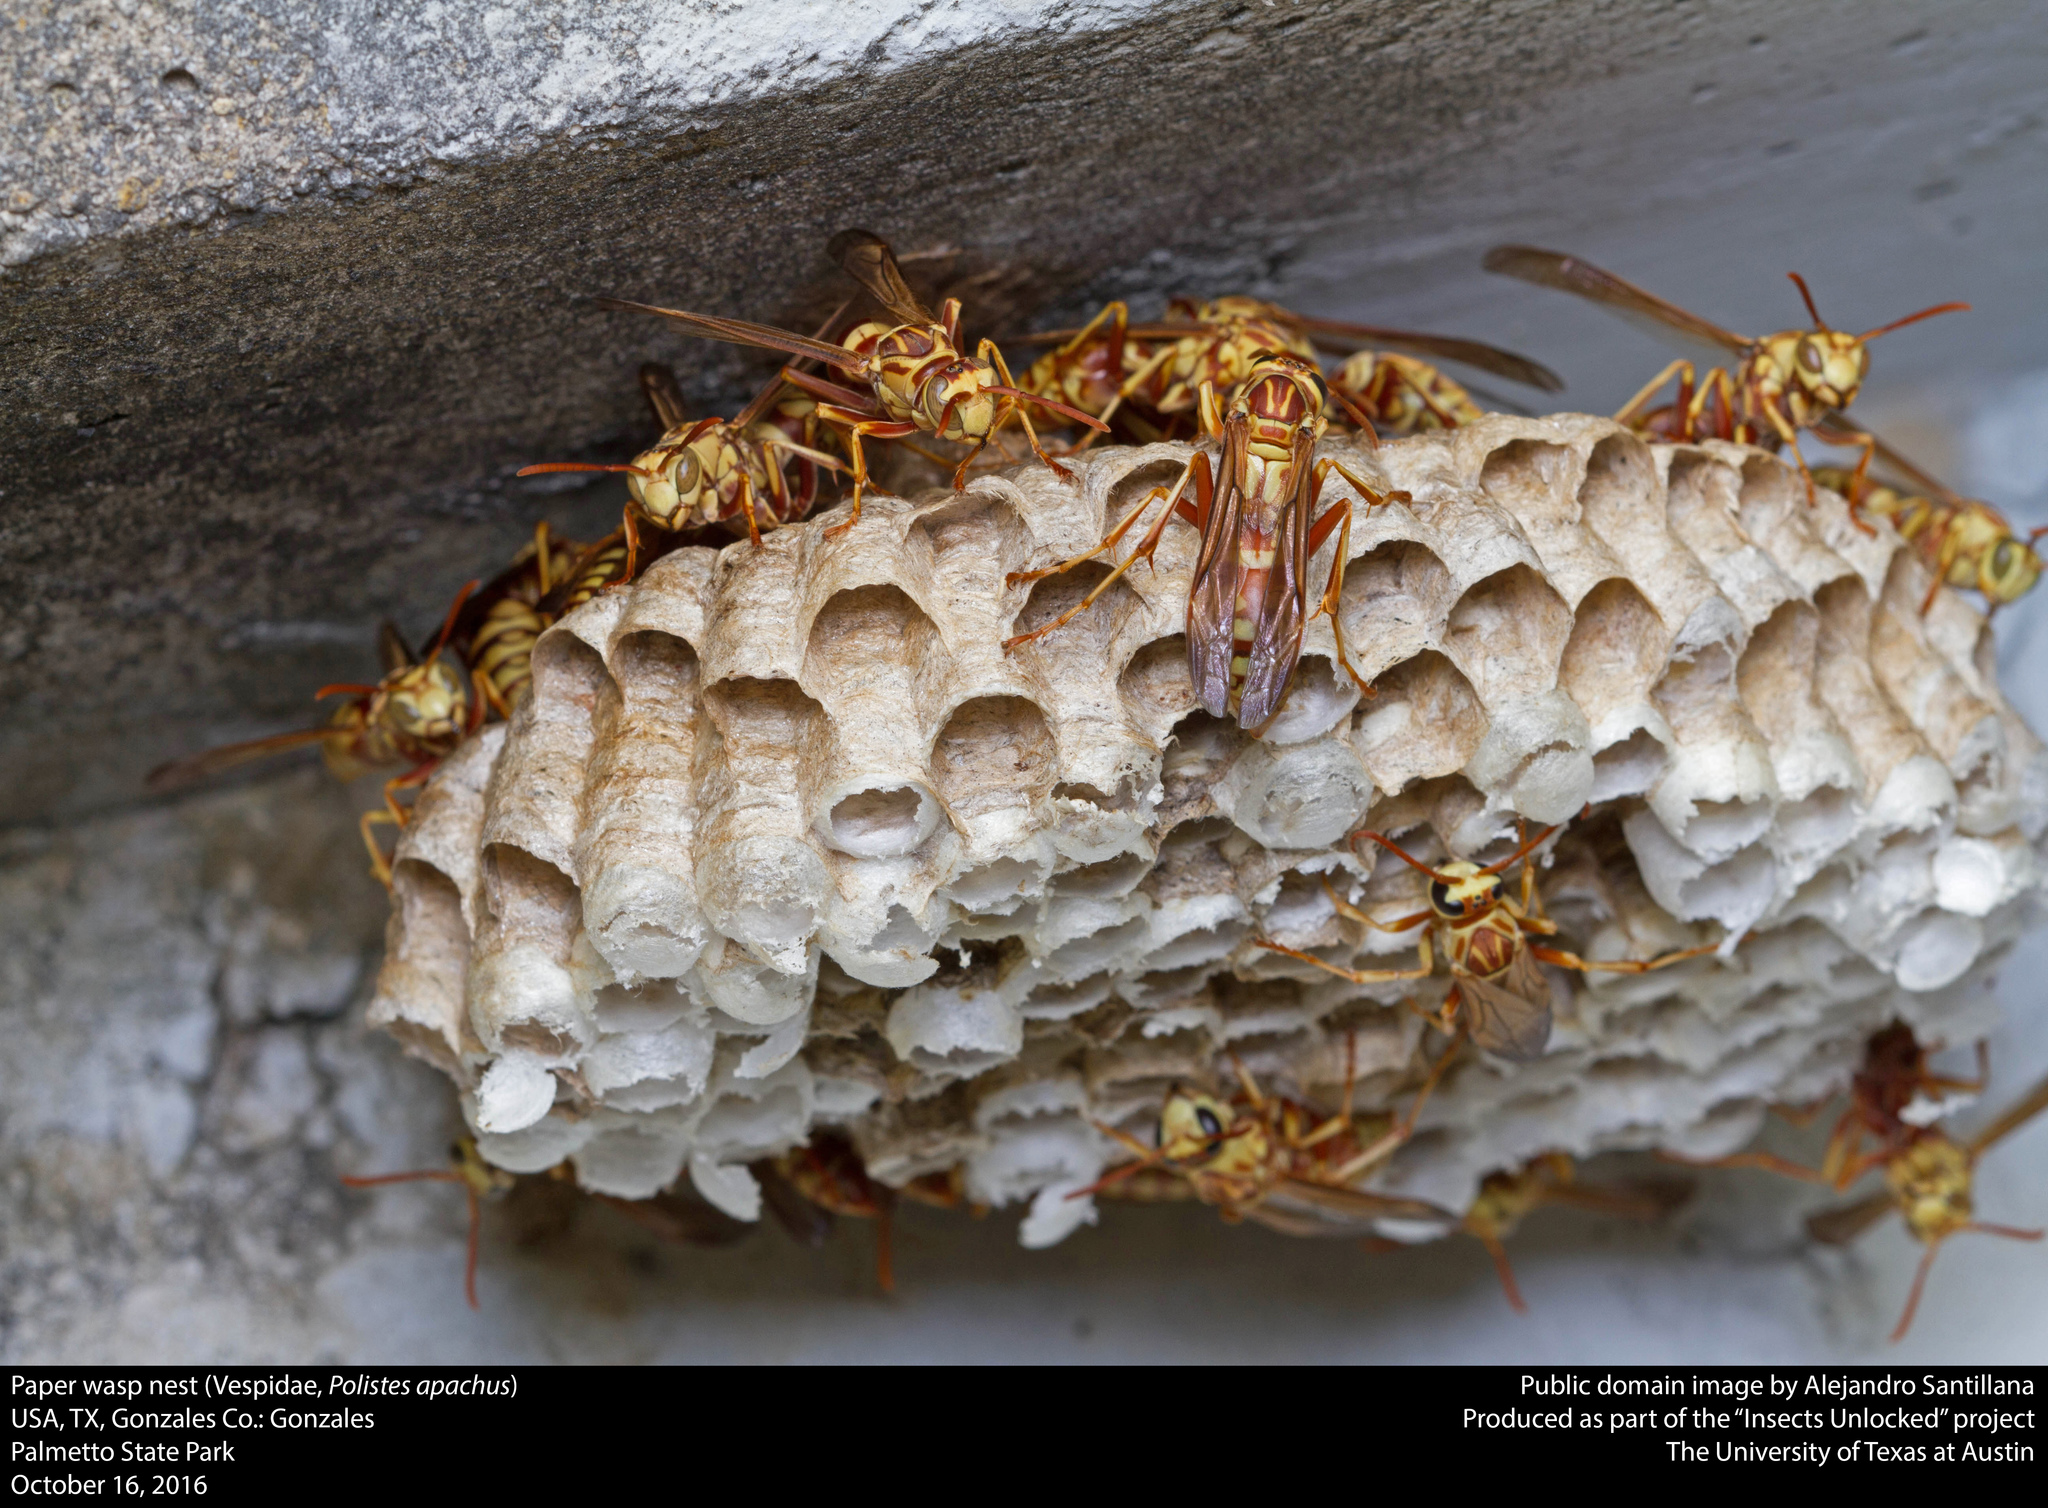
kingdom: Animalia
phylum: Arthropoda
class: Insecta
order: Hymenoptera
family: Eumenidae
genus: Polistes
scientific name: Polistes apachus
